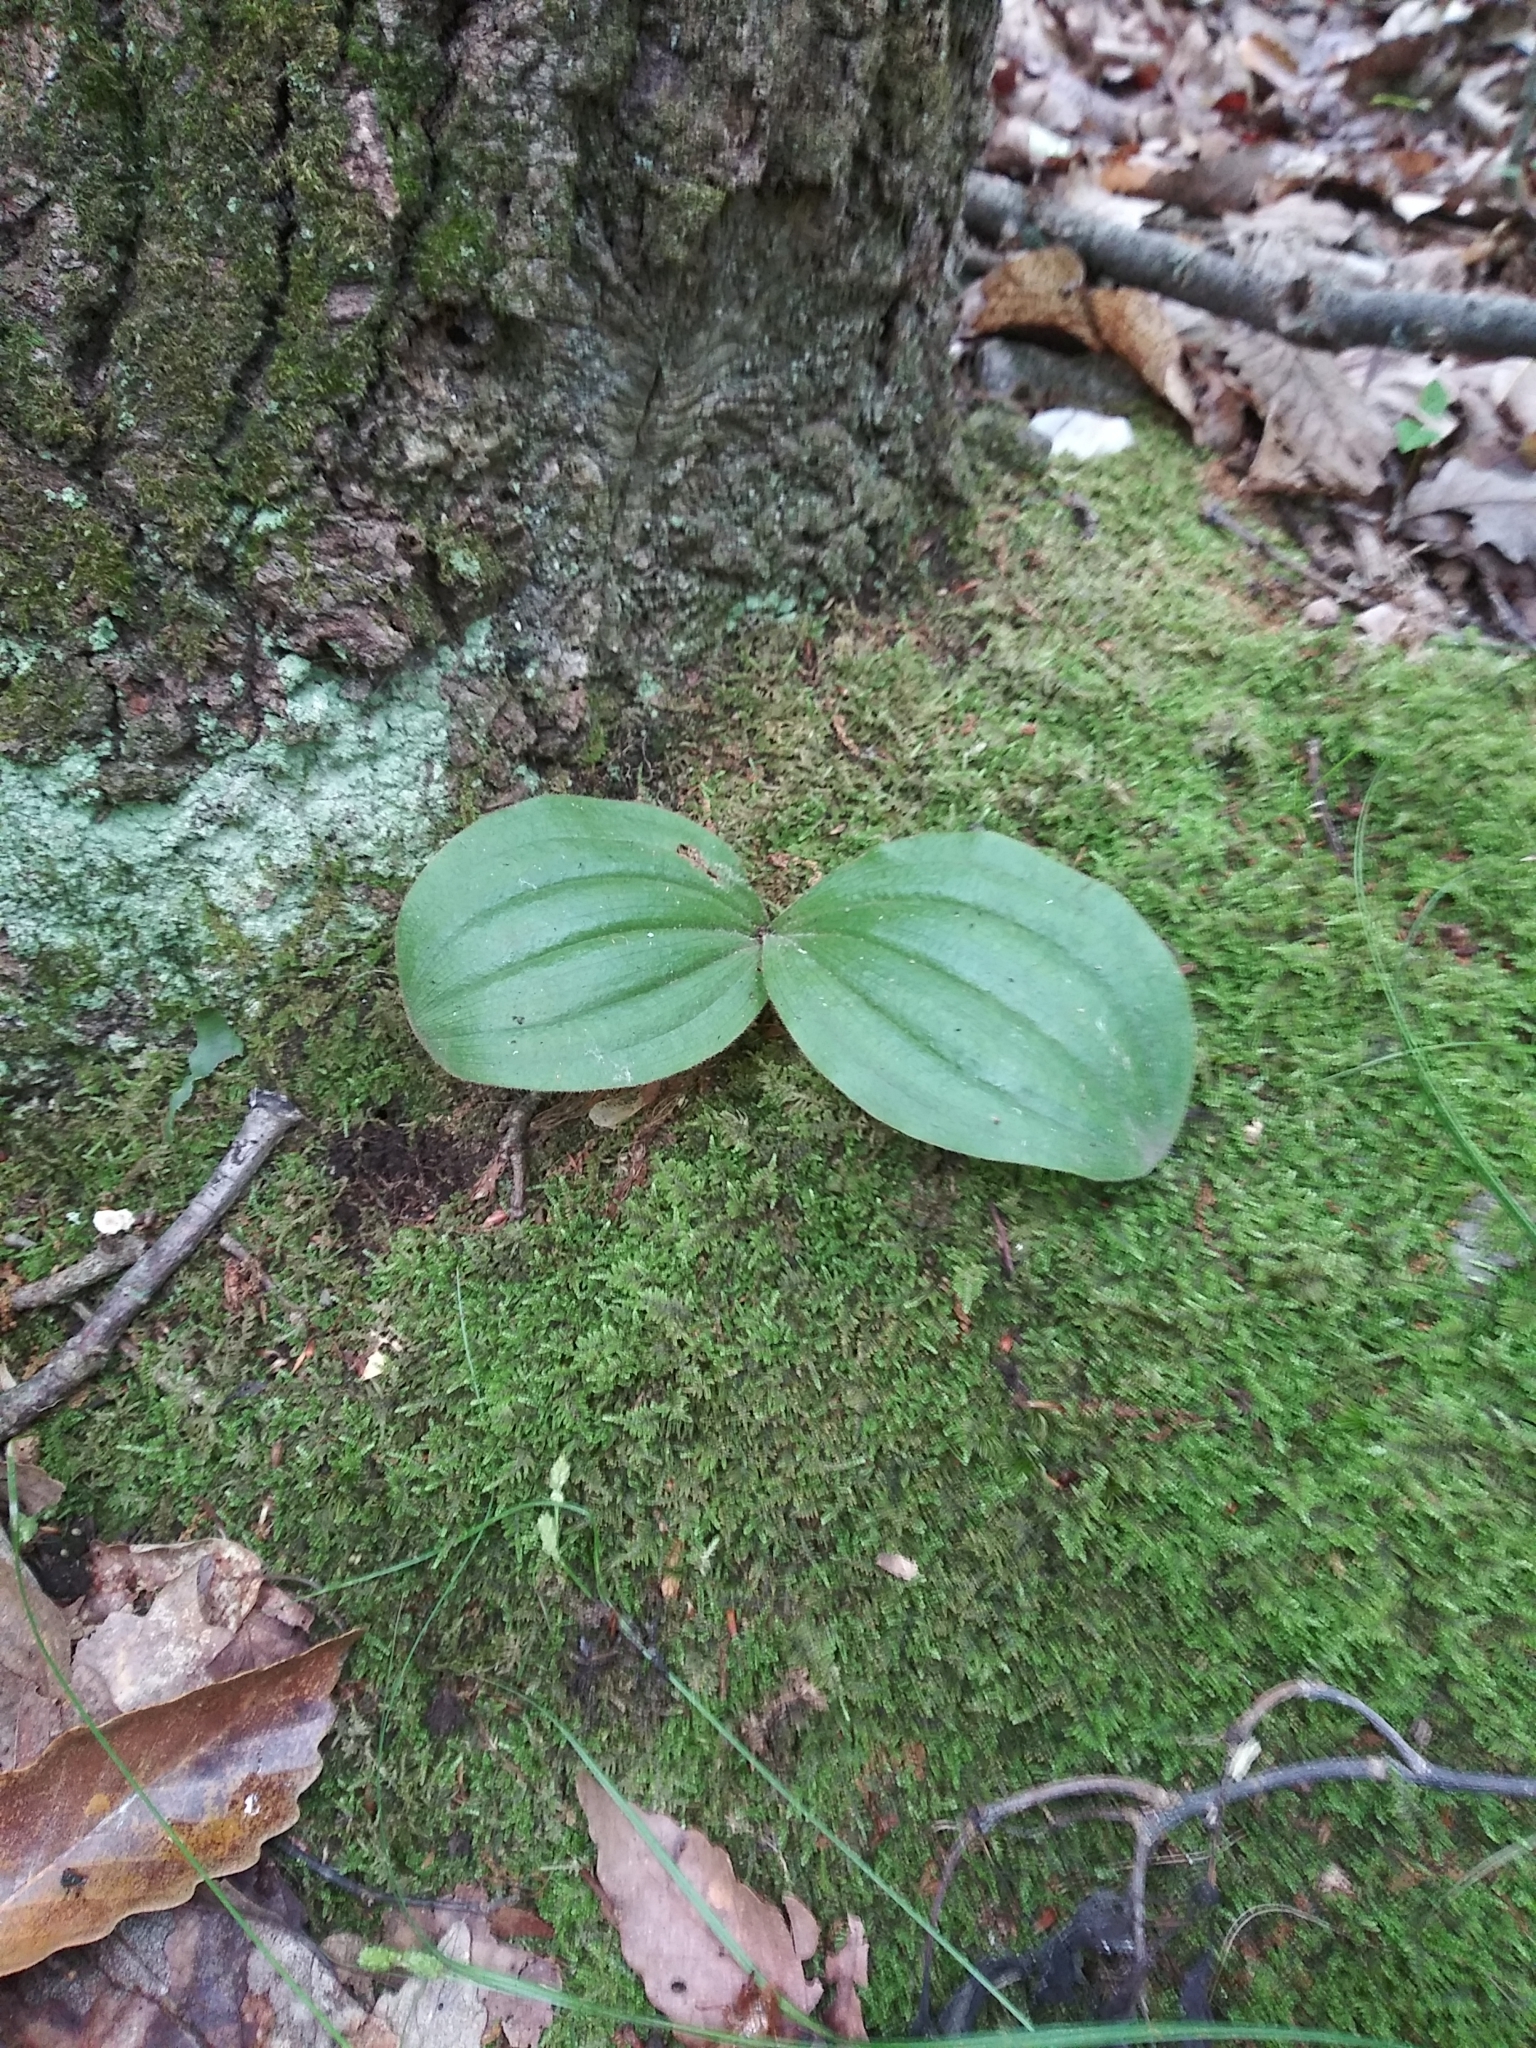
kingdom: Plantae
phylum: Tracheophyta
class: Liliopsida
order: Asparagales
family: Orchidaceae
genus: Cypripedium
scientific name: Cypripedium acaule
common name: Pink lady's-slipper
